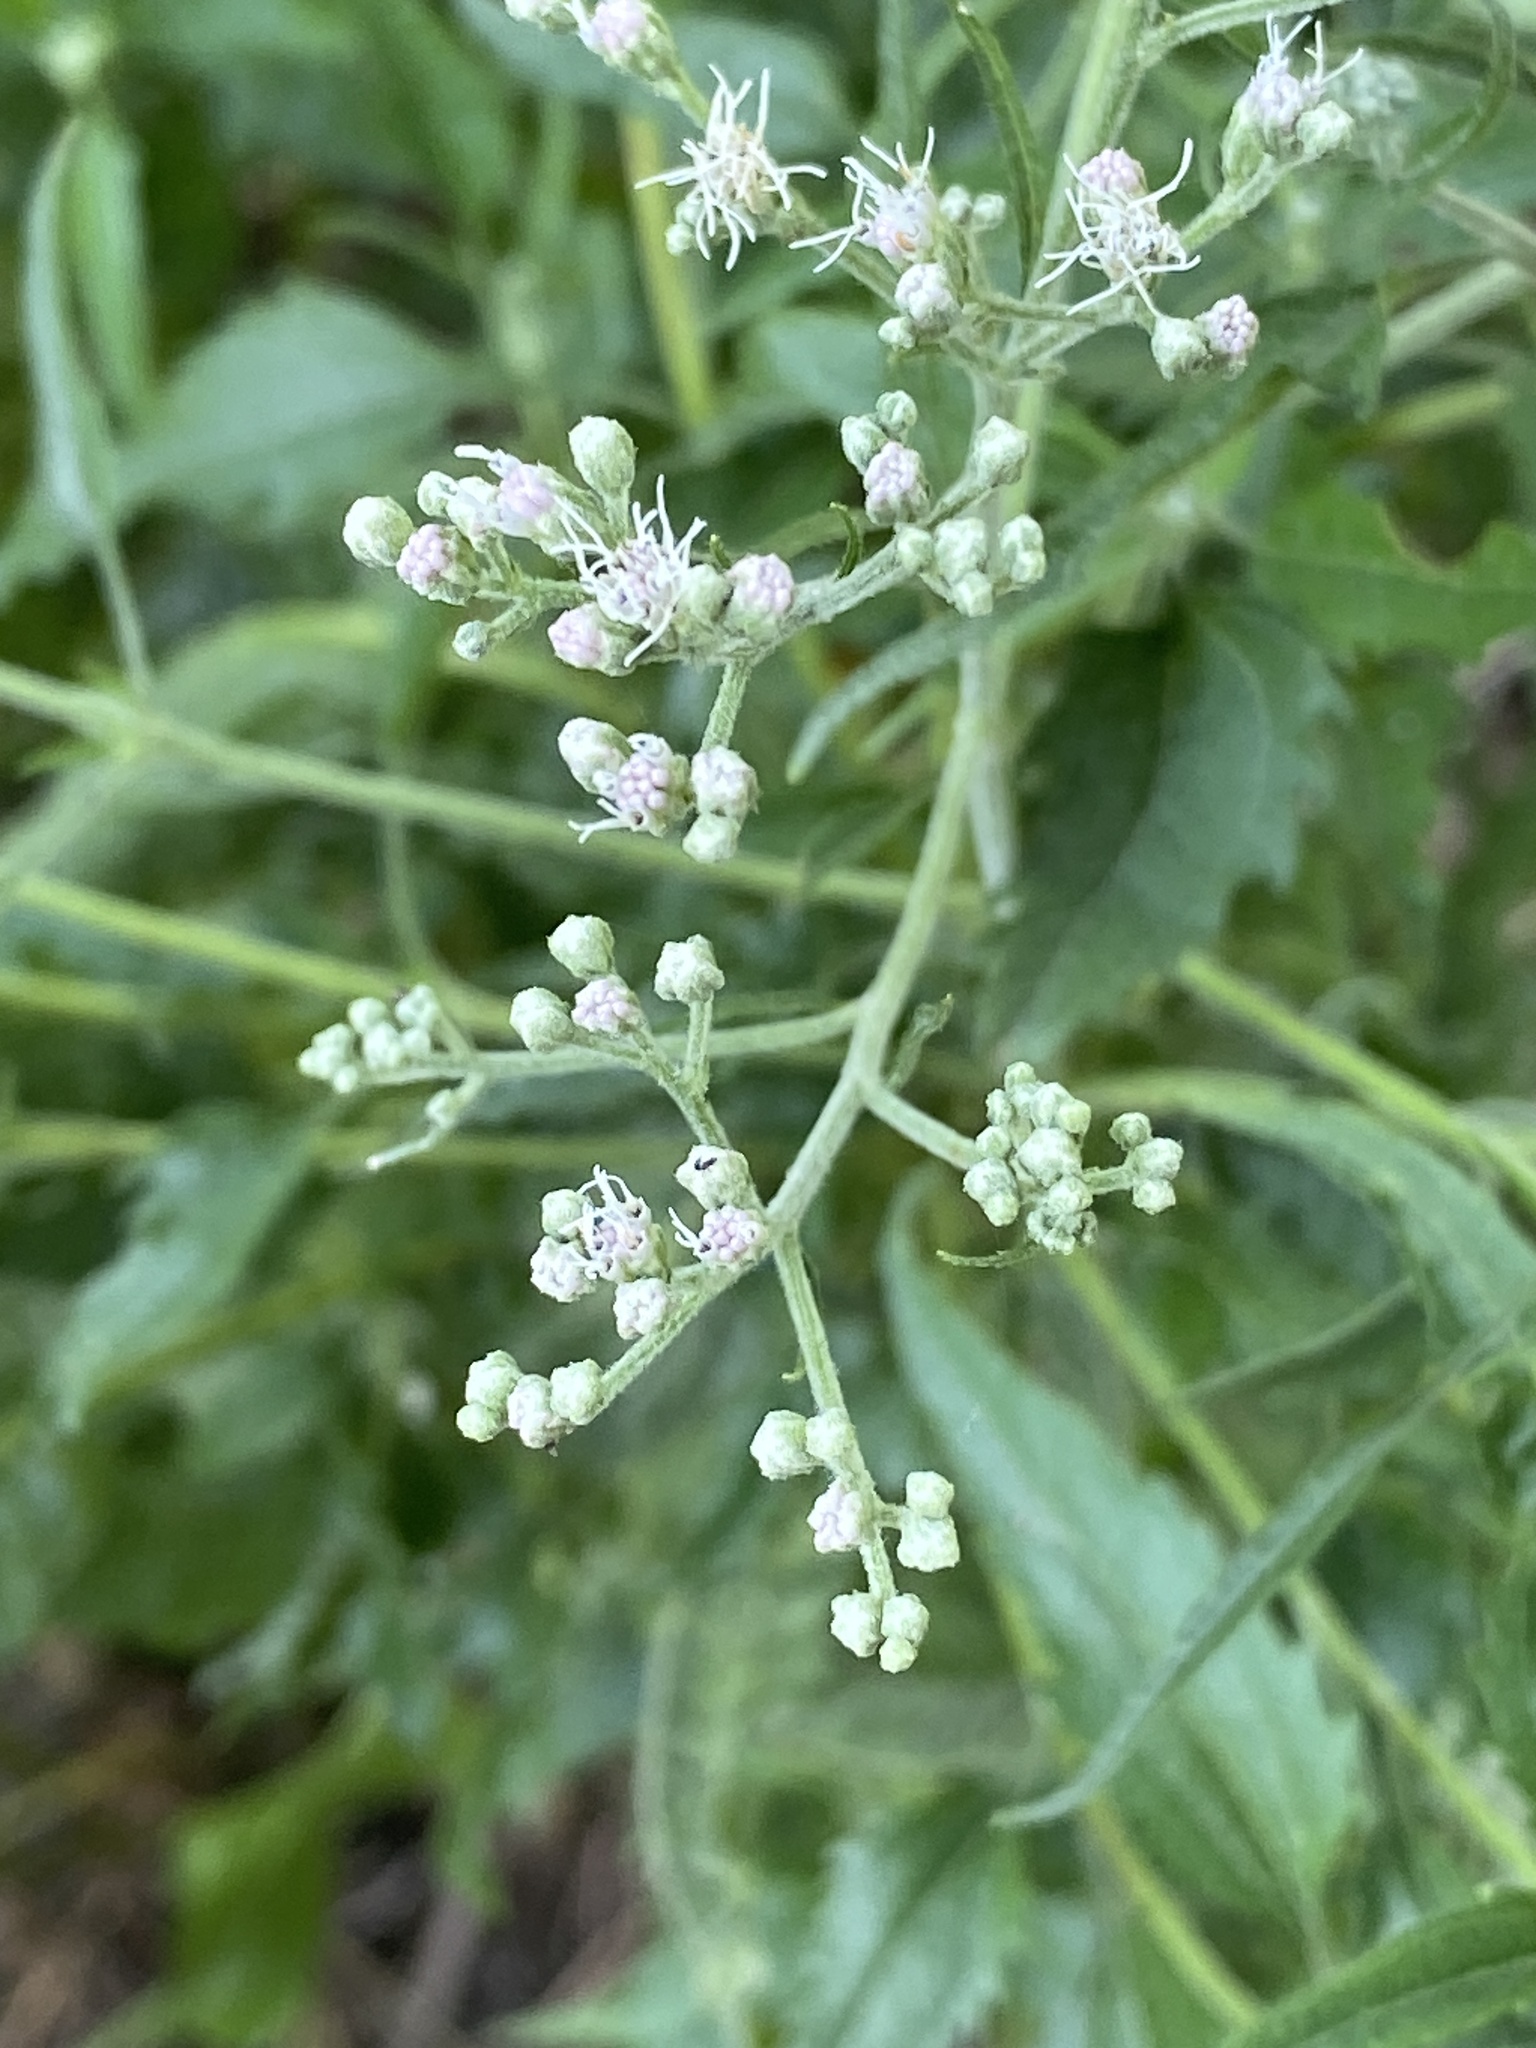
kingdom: Plantae
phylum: Tracheophyta
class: Magnoliopsida
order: Asterales
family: Asteraceae
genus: Eupatorium
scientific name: Eupatorium serotinum
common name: Late boneset
